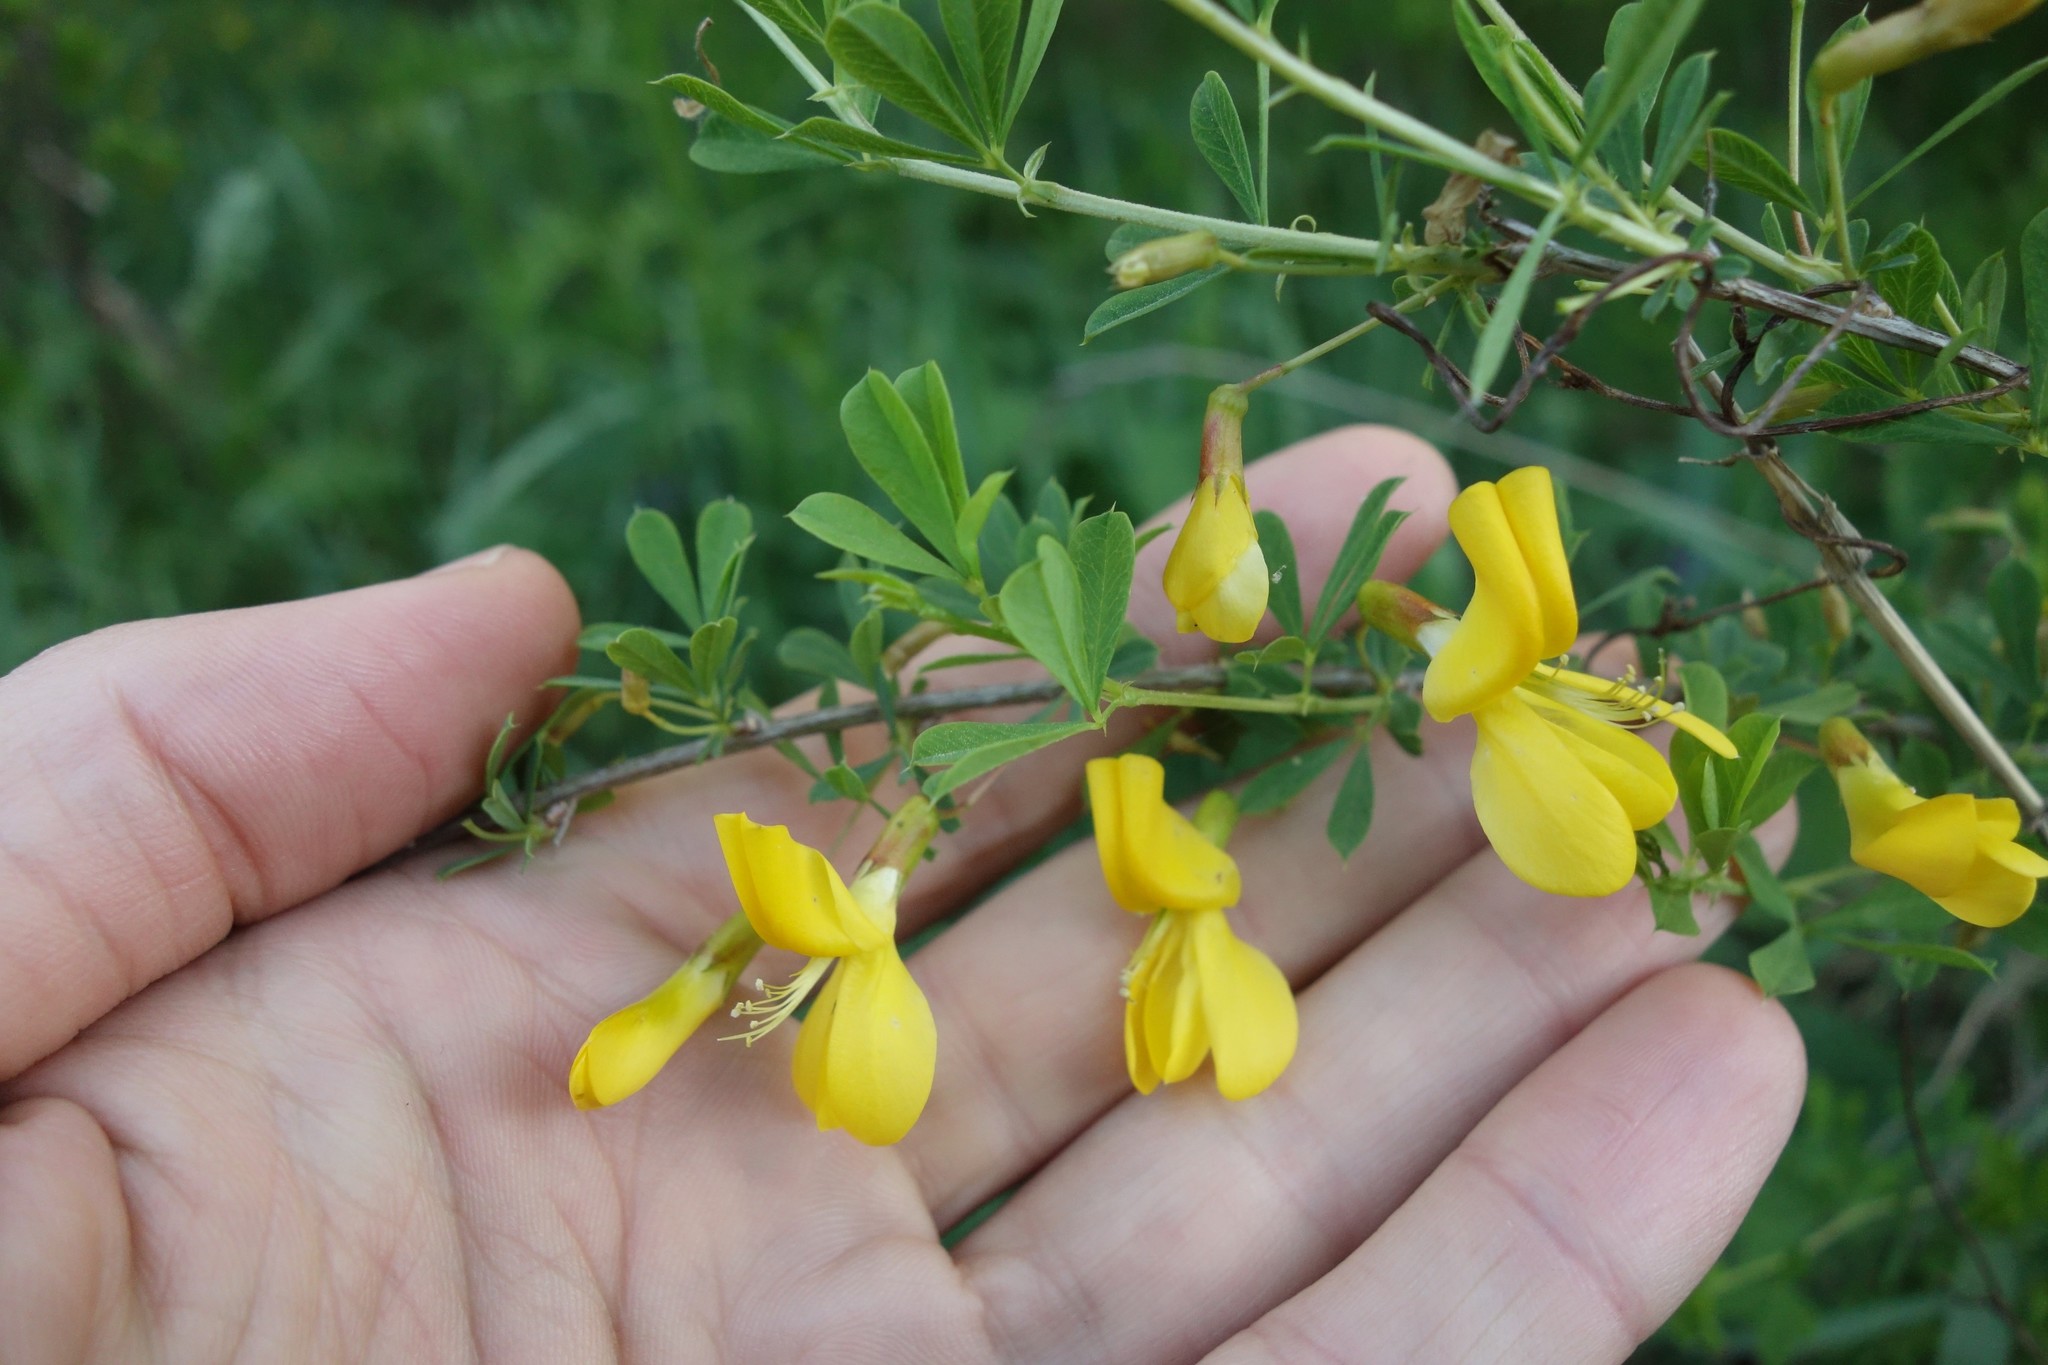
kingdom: Plantae
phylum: Tracheophyta
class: Magnoliopsida
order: Fabales
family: Fabaceae
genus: Caragana
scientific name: Caragana frutex
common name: Russian peashrub
